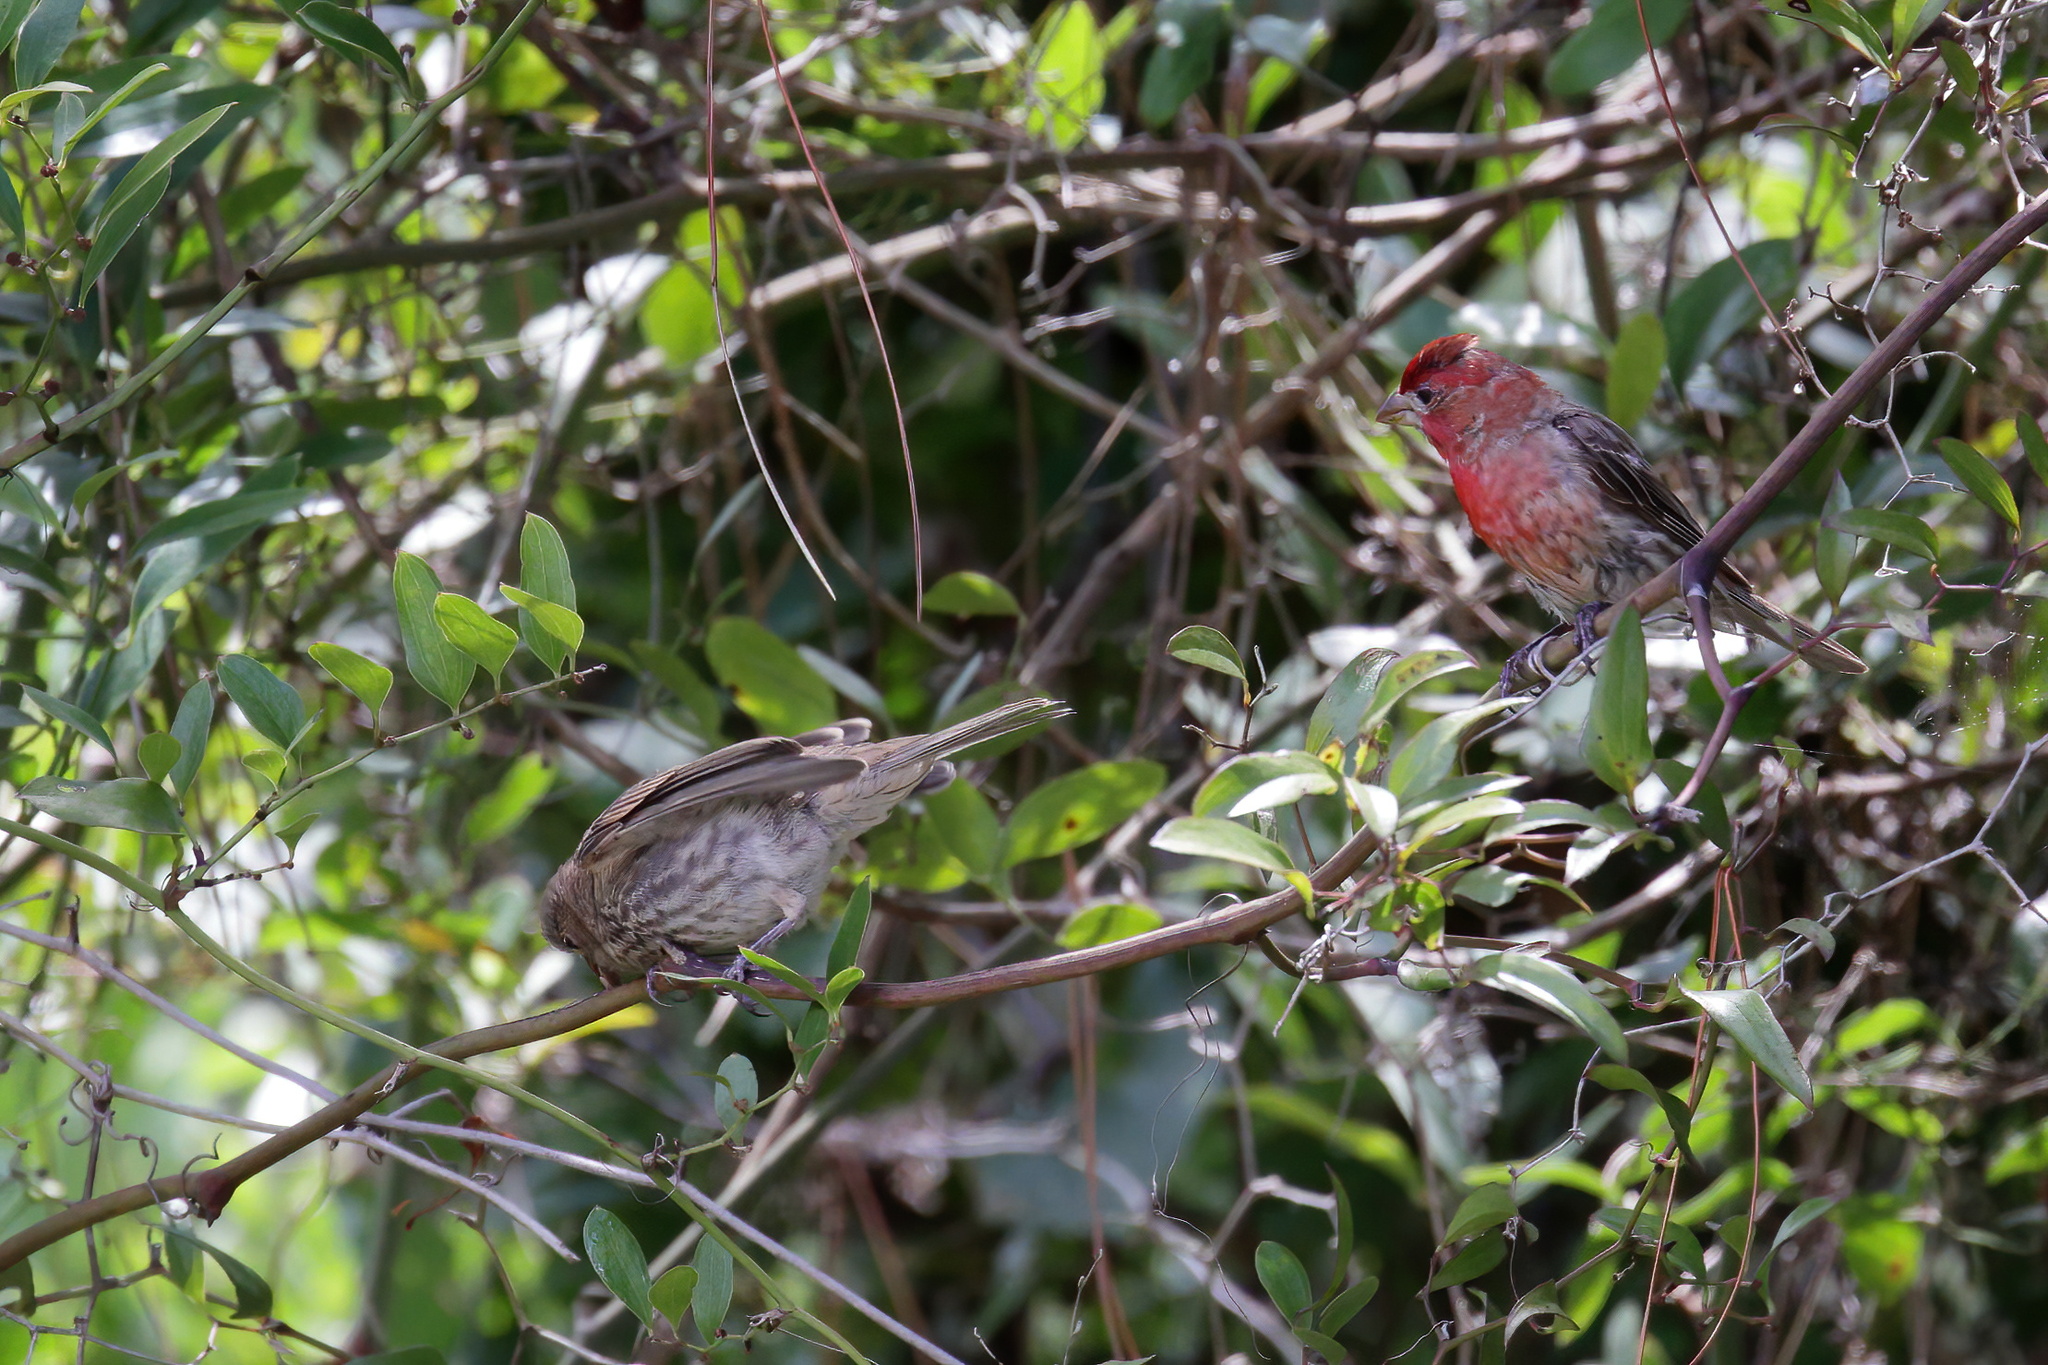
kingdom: Animalia
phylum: Chordata
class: Aves
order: Passeriformes
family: Fringillidae
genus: Haemorhous
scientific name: Haemorhous mexicanus
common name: House finch
